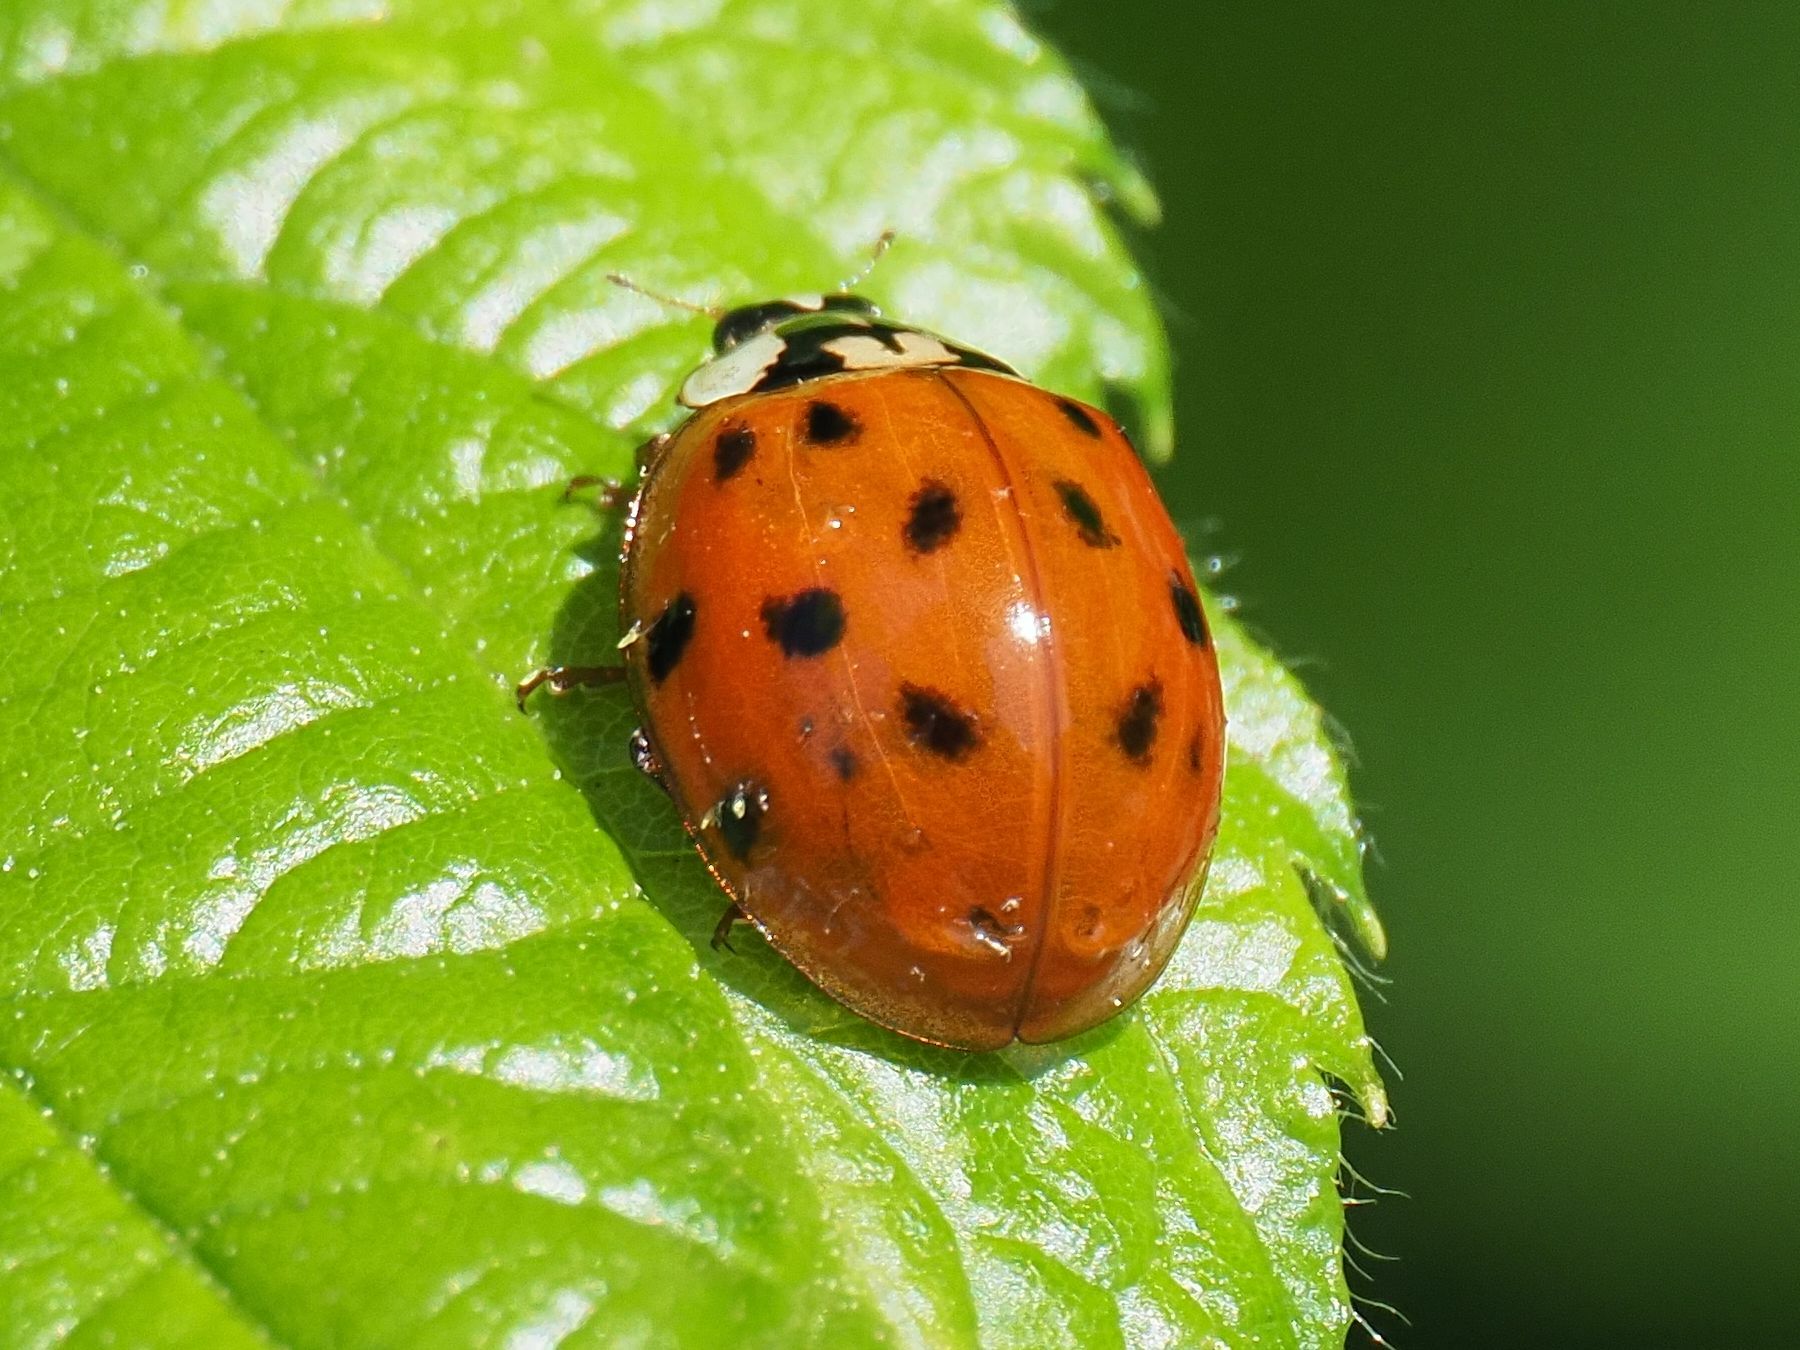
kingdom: Animalia
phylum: Arthropoda
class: Insecta
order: Coleoptera
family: Coccinellidae
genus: Harmonia
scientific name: Harmonia axyridis
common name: Harlequin ladybird
